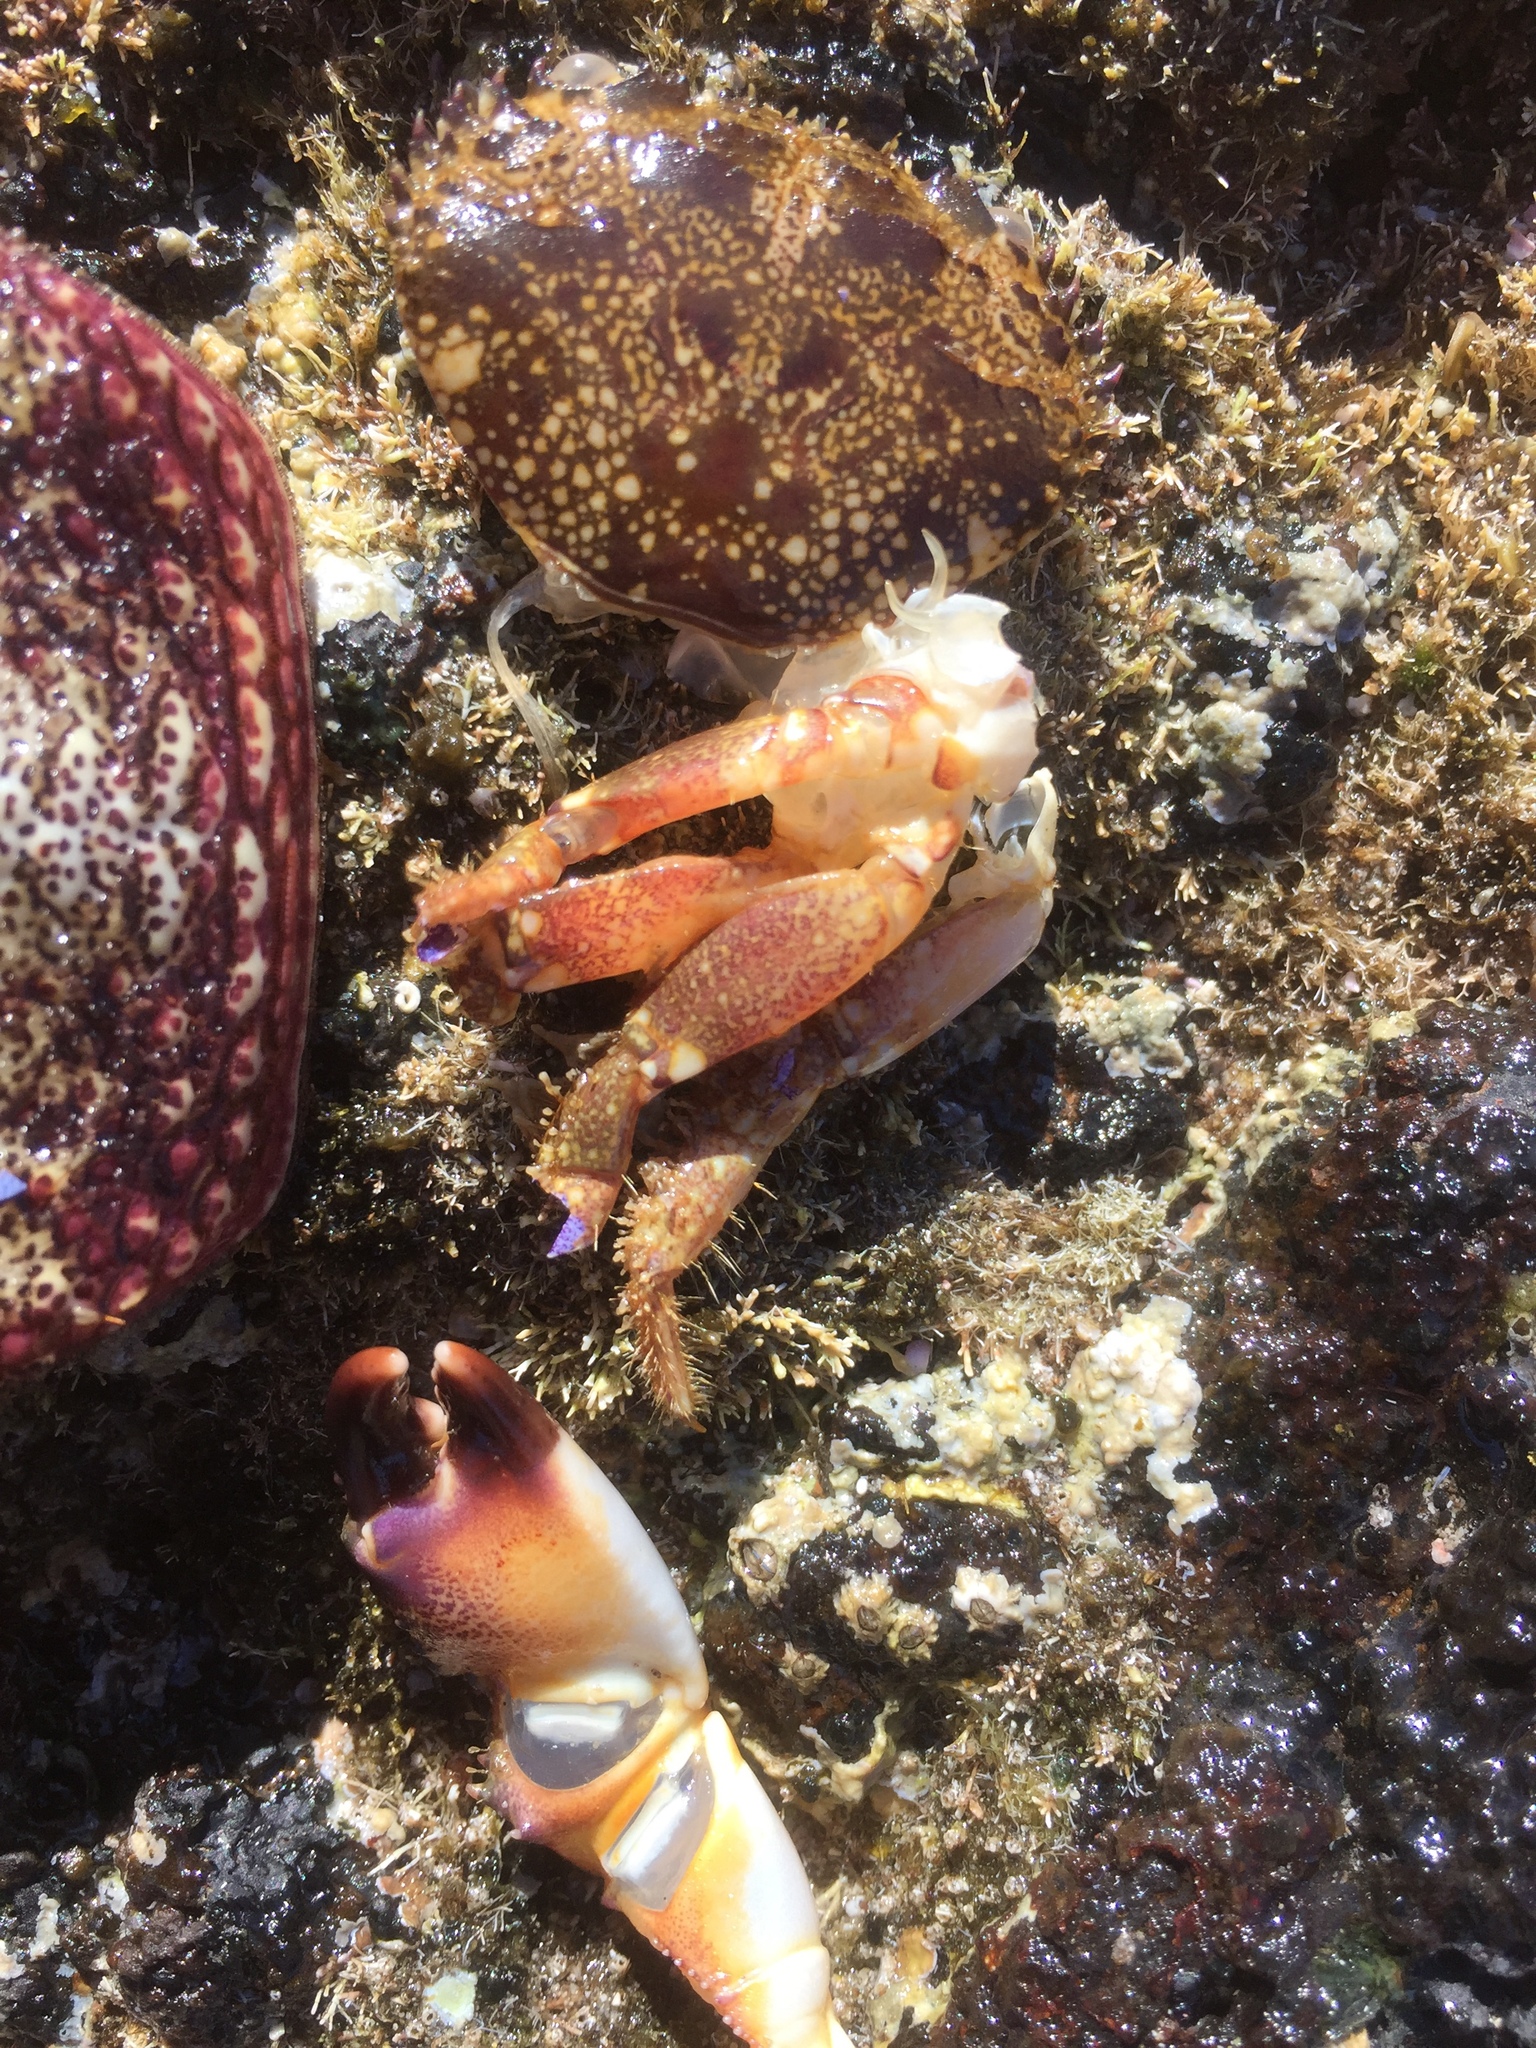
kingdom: Animalia
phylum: Arthropoda
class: Malacostraca
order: Decapoda
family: Eriphiidae
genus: Eriphia
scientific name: Eriphia verrucosa
